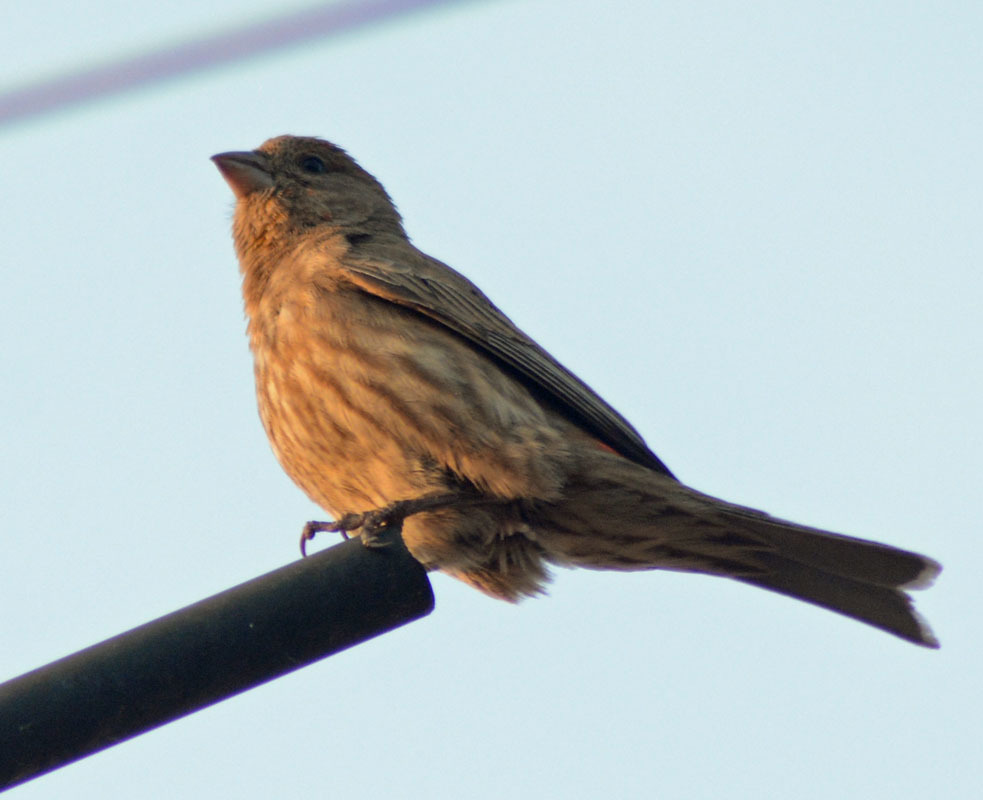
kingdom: Animalia
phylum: Chordata
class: Aves
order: Passeriformes
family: Fringillidae
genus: Haemorhous
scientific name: Haemorhous mexicanus
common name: House finch
